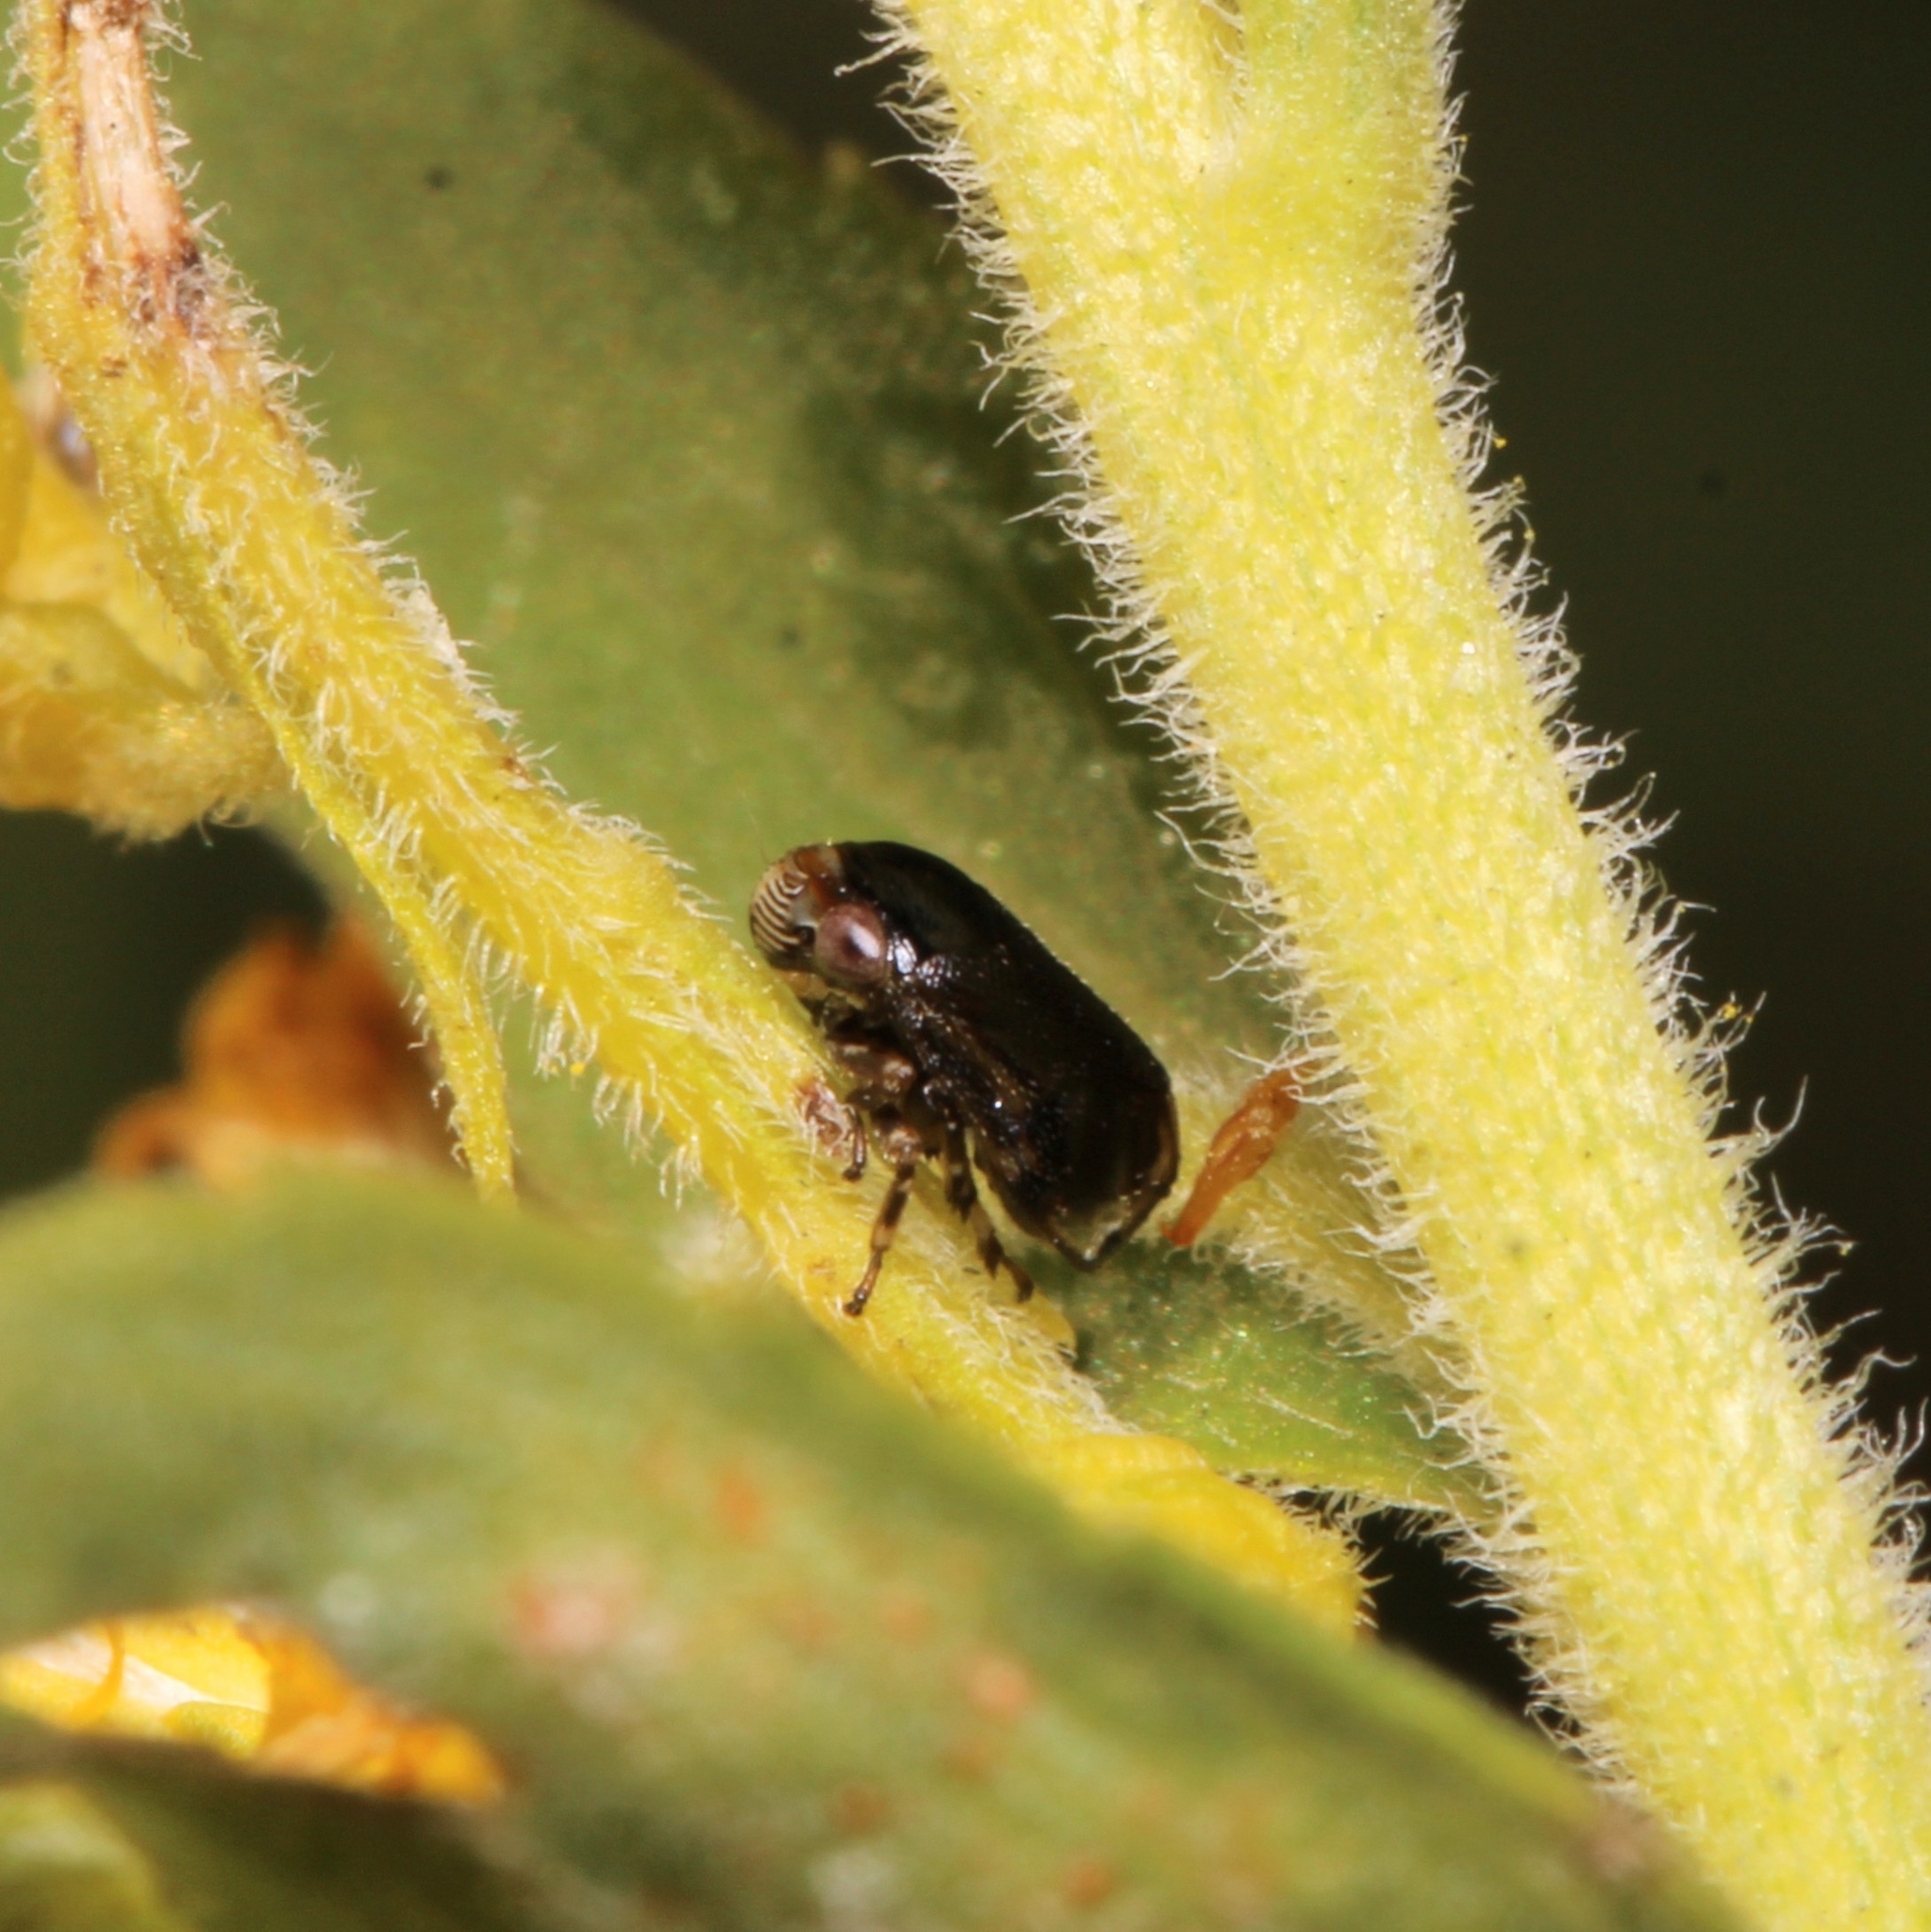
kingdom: Animalia
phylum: Arthropoda
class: Insecta
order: Hemiptera
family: Clastopteridae
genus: Clastoptera
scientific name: Clastoptera xanthocephala
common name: Sunflower spittlebug
